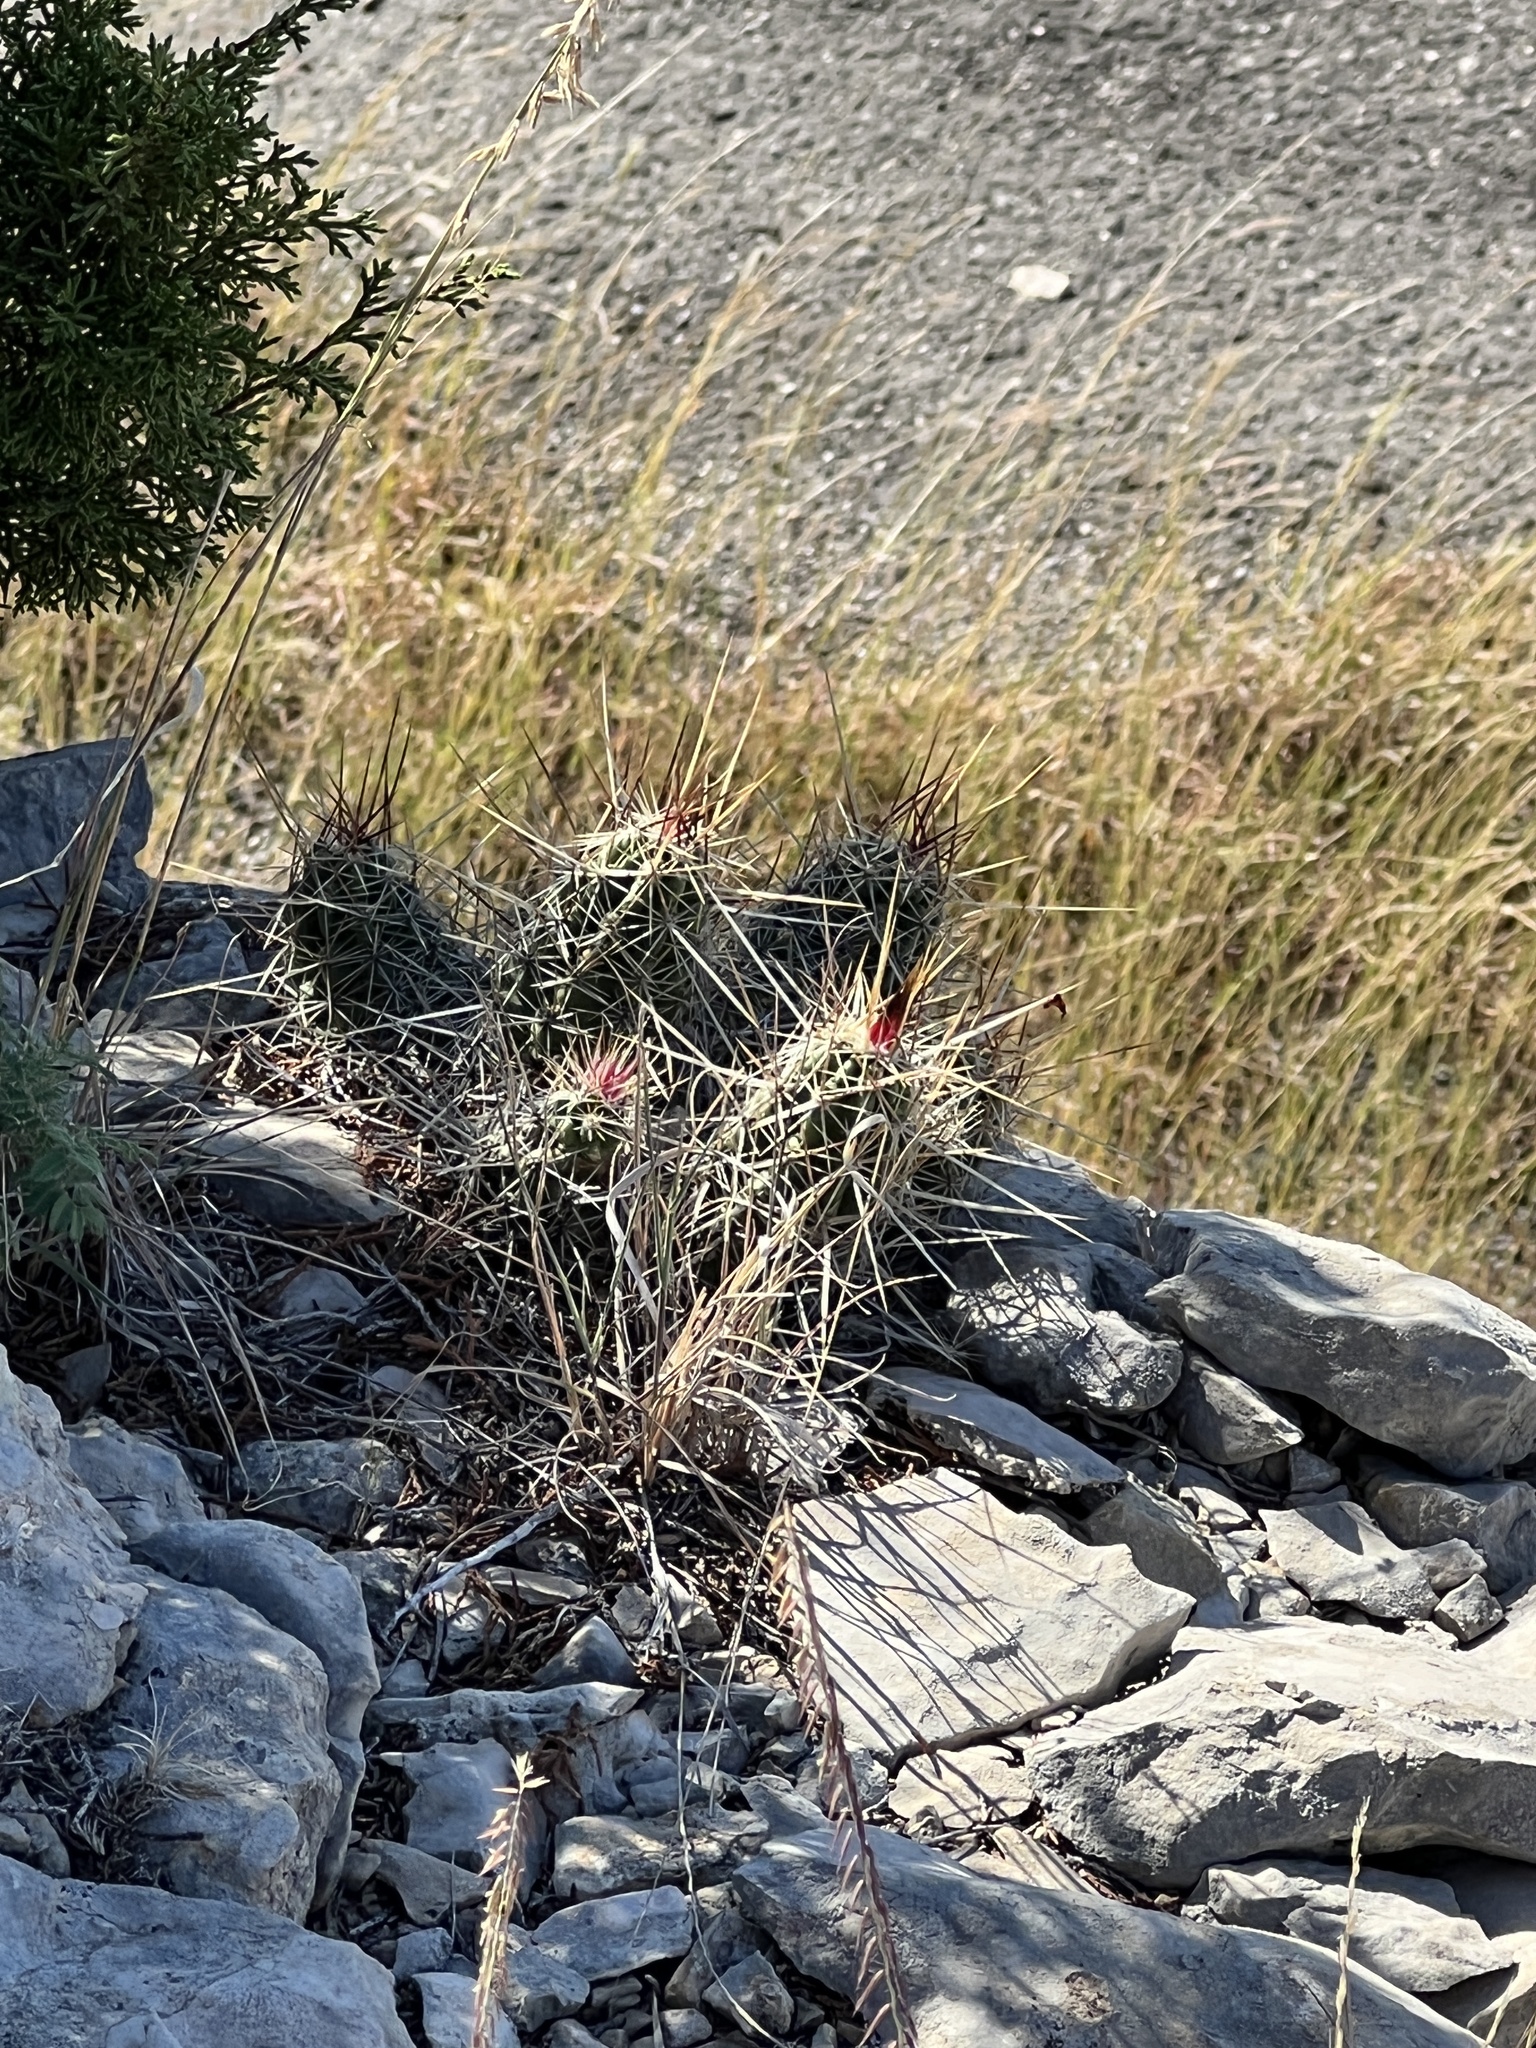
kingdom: Plantae
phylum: Tracheophyta
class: Magnoliopsida
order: Caryophyllales
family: Cactaceae
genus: Echinocereus
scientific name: Echinocereus enneacanthus
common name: Pitaya
